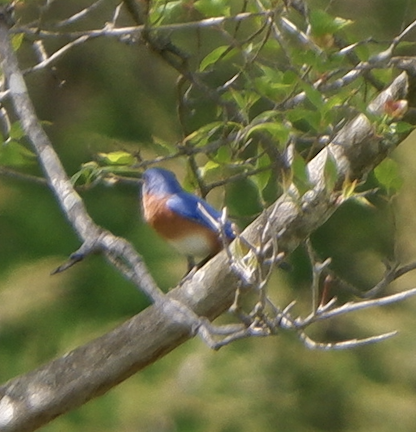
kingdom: Animalia
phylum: Chordata
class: Aves
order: Passeriformes
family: Turdidae
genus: Sialia
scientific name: Sialia sialis
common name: Eastern bluebird
